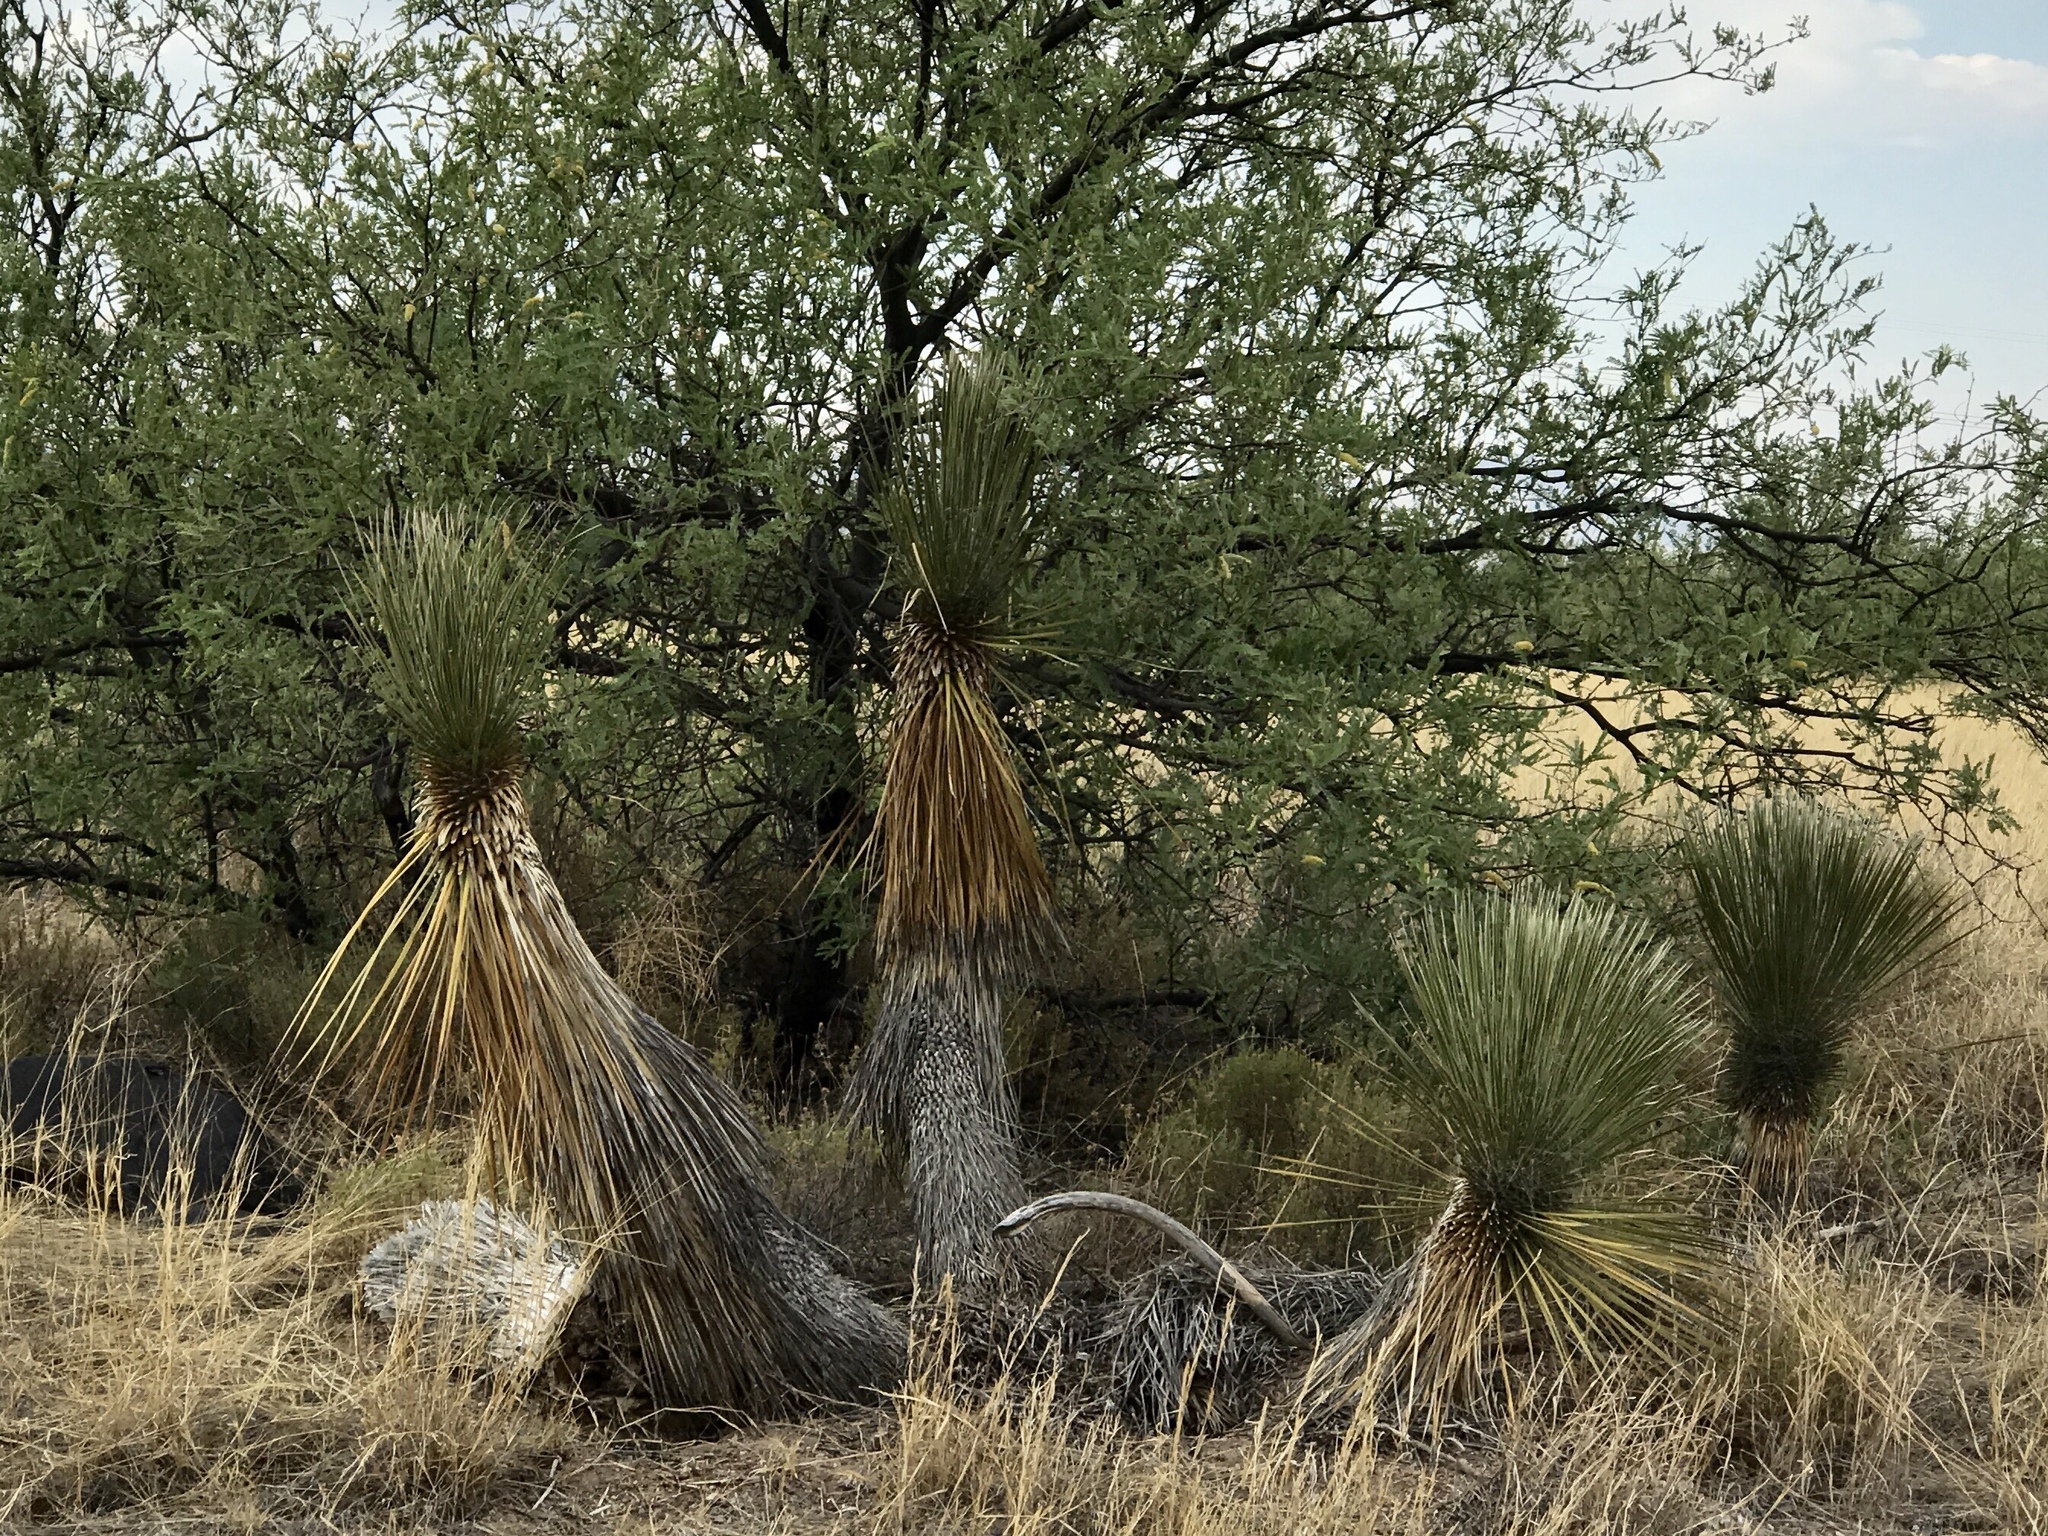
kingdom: Plantae
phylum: Tracheophyta
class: Liliopsida
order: Asparagales
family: Asparagaceae
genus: Yucca
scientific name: Yucca elata
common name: Palmella
